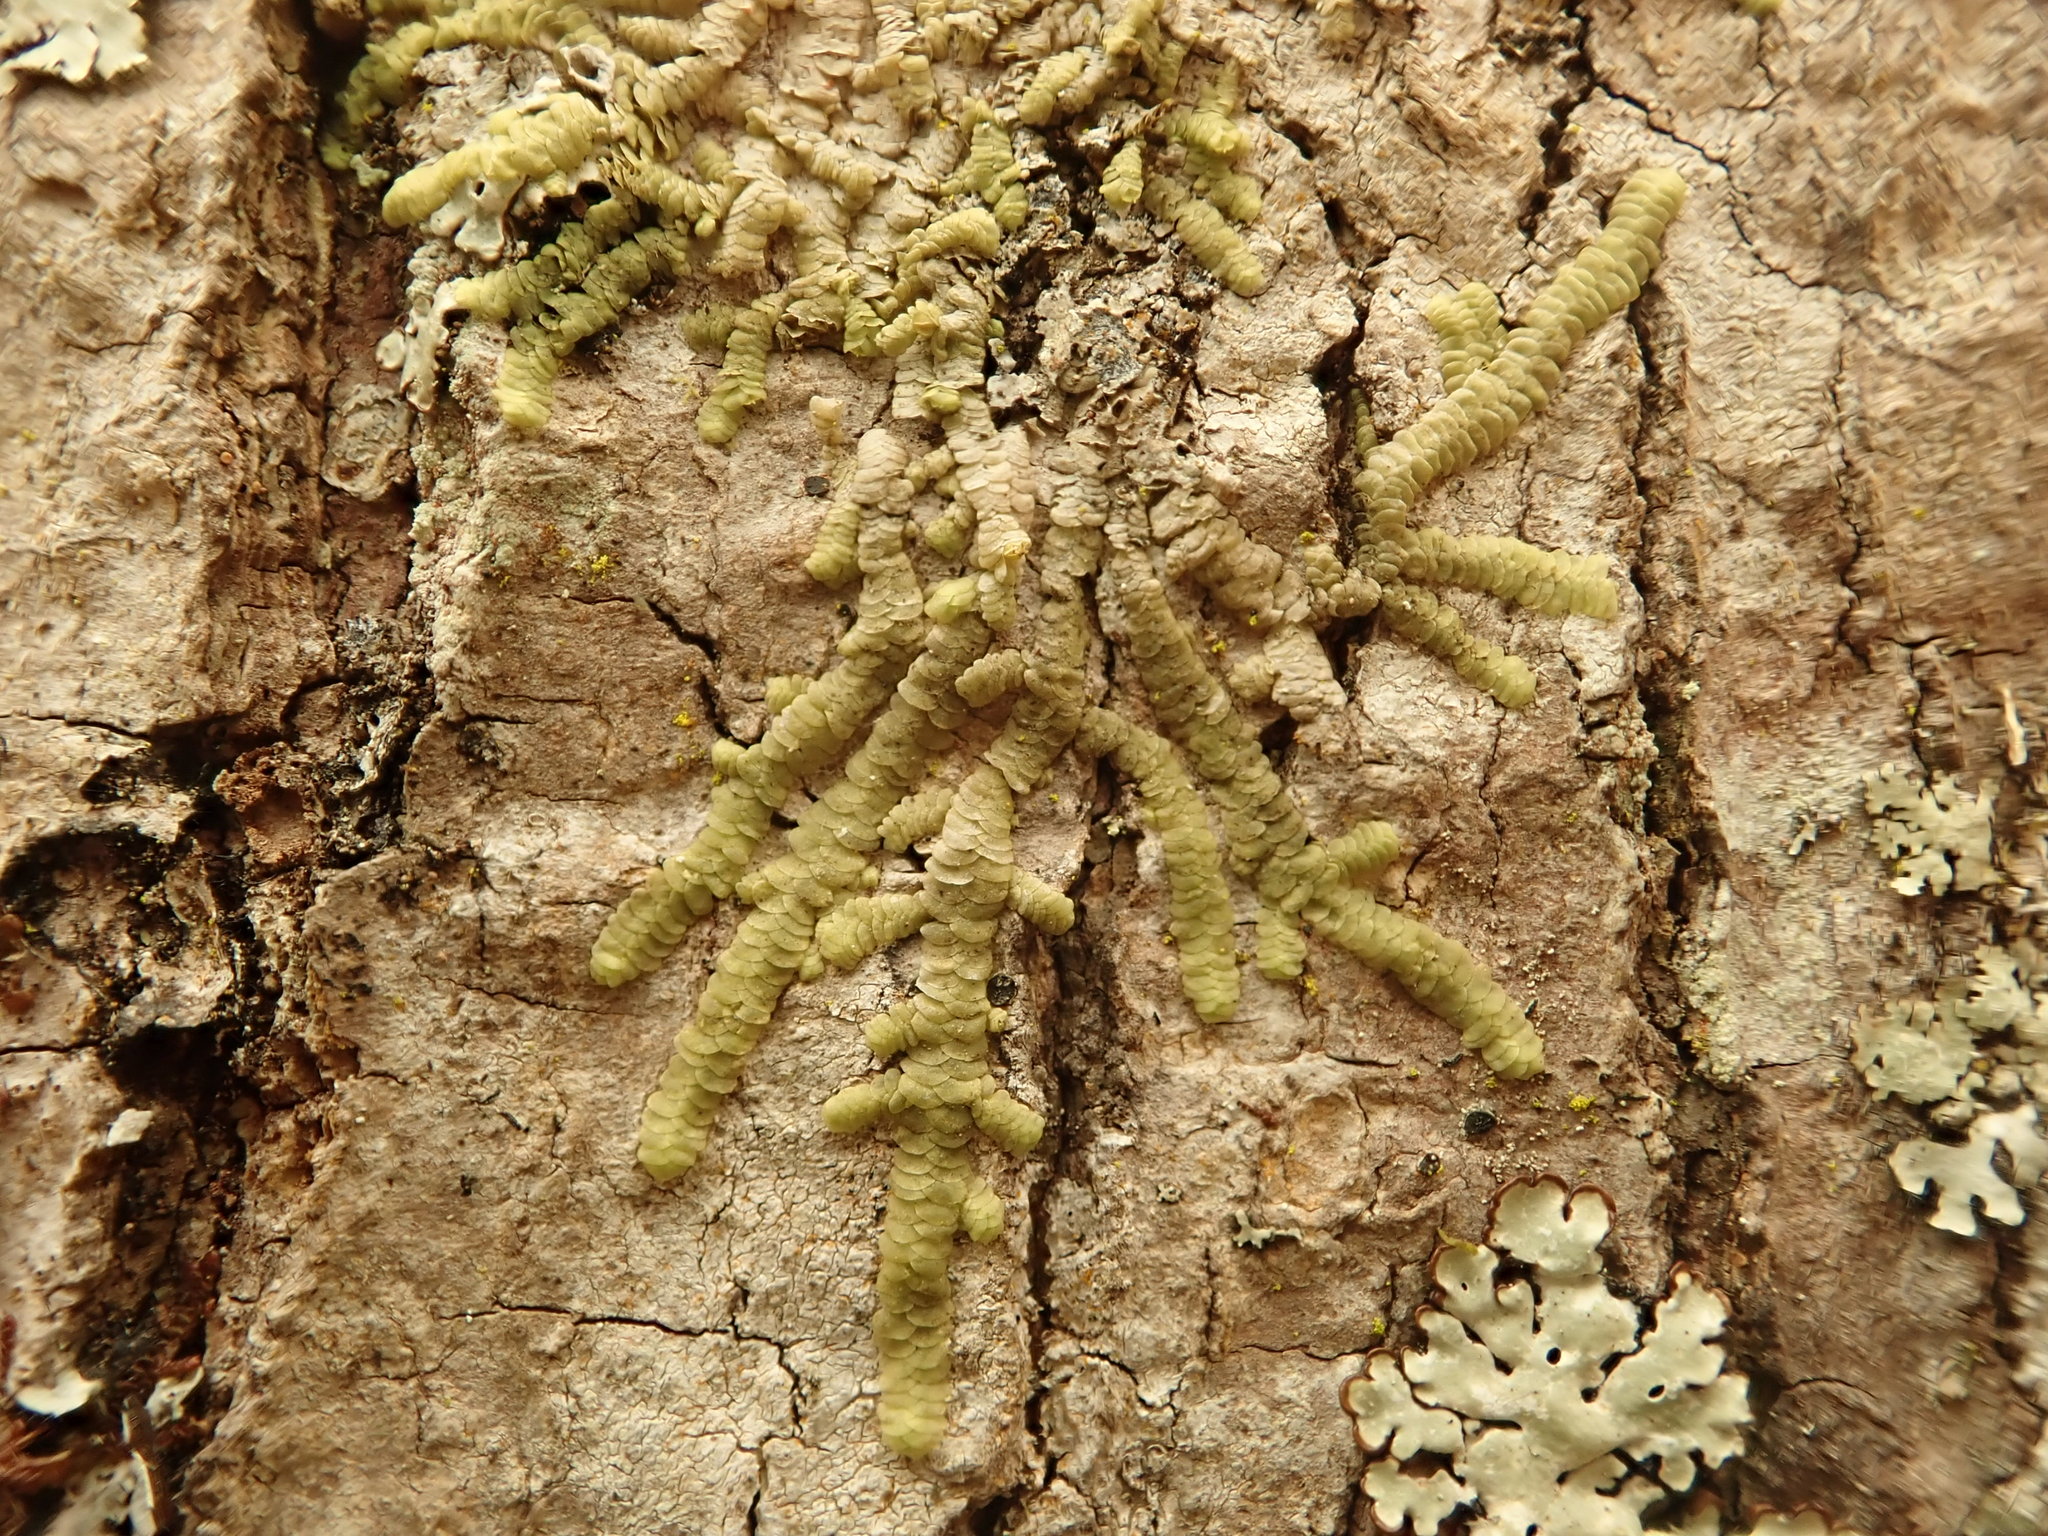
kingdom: Plantae
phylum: Marchantiophyta
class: Jungermanniopsida
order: Porellales
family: Radulaceae
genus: Radula
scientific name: Radula complanata
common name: Flat-leaved scalewort
